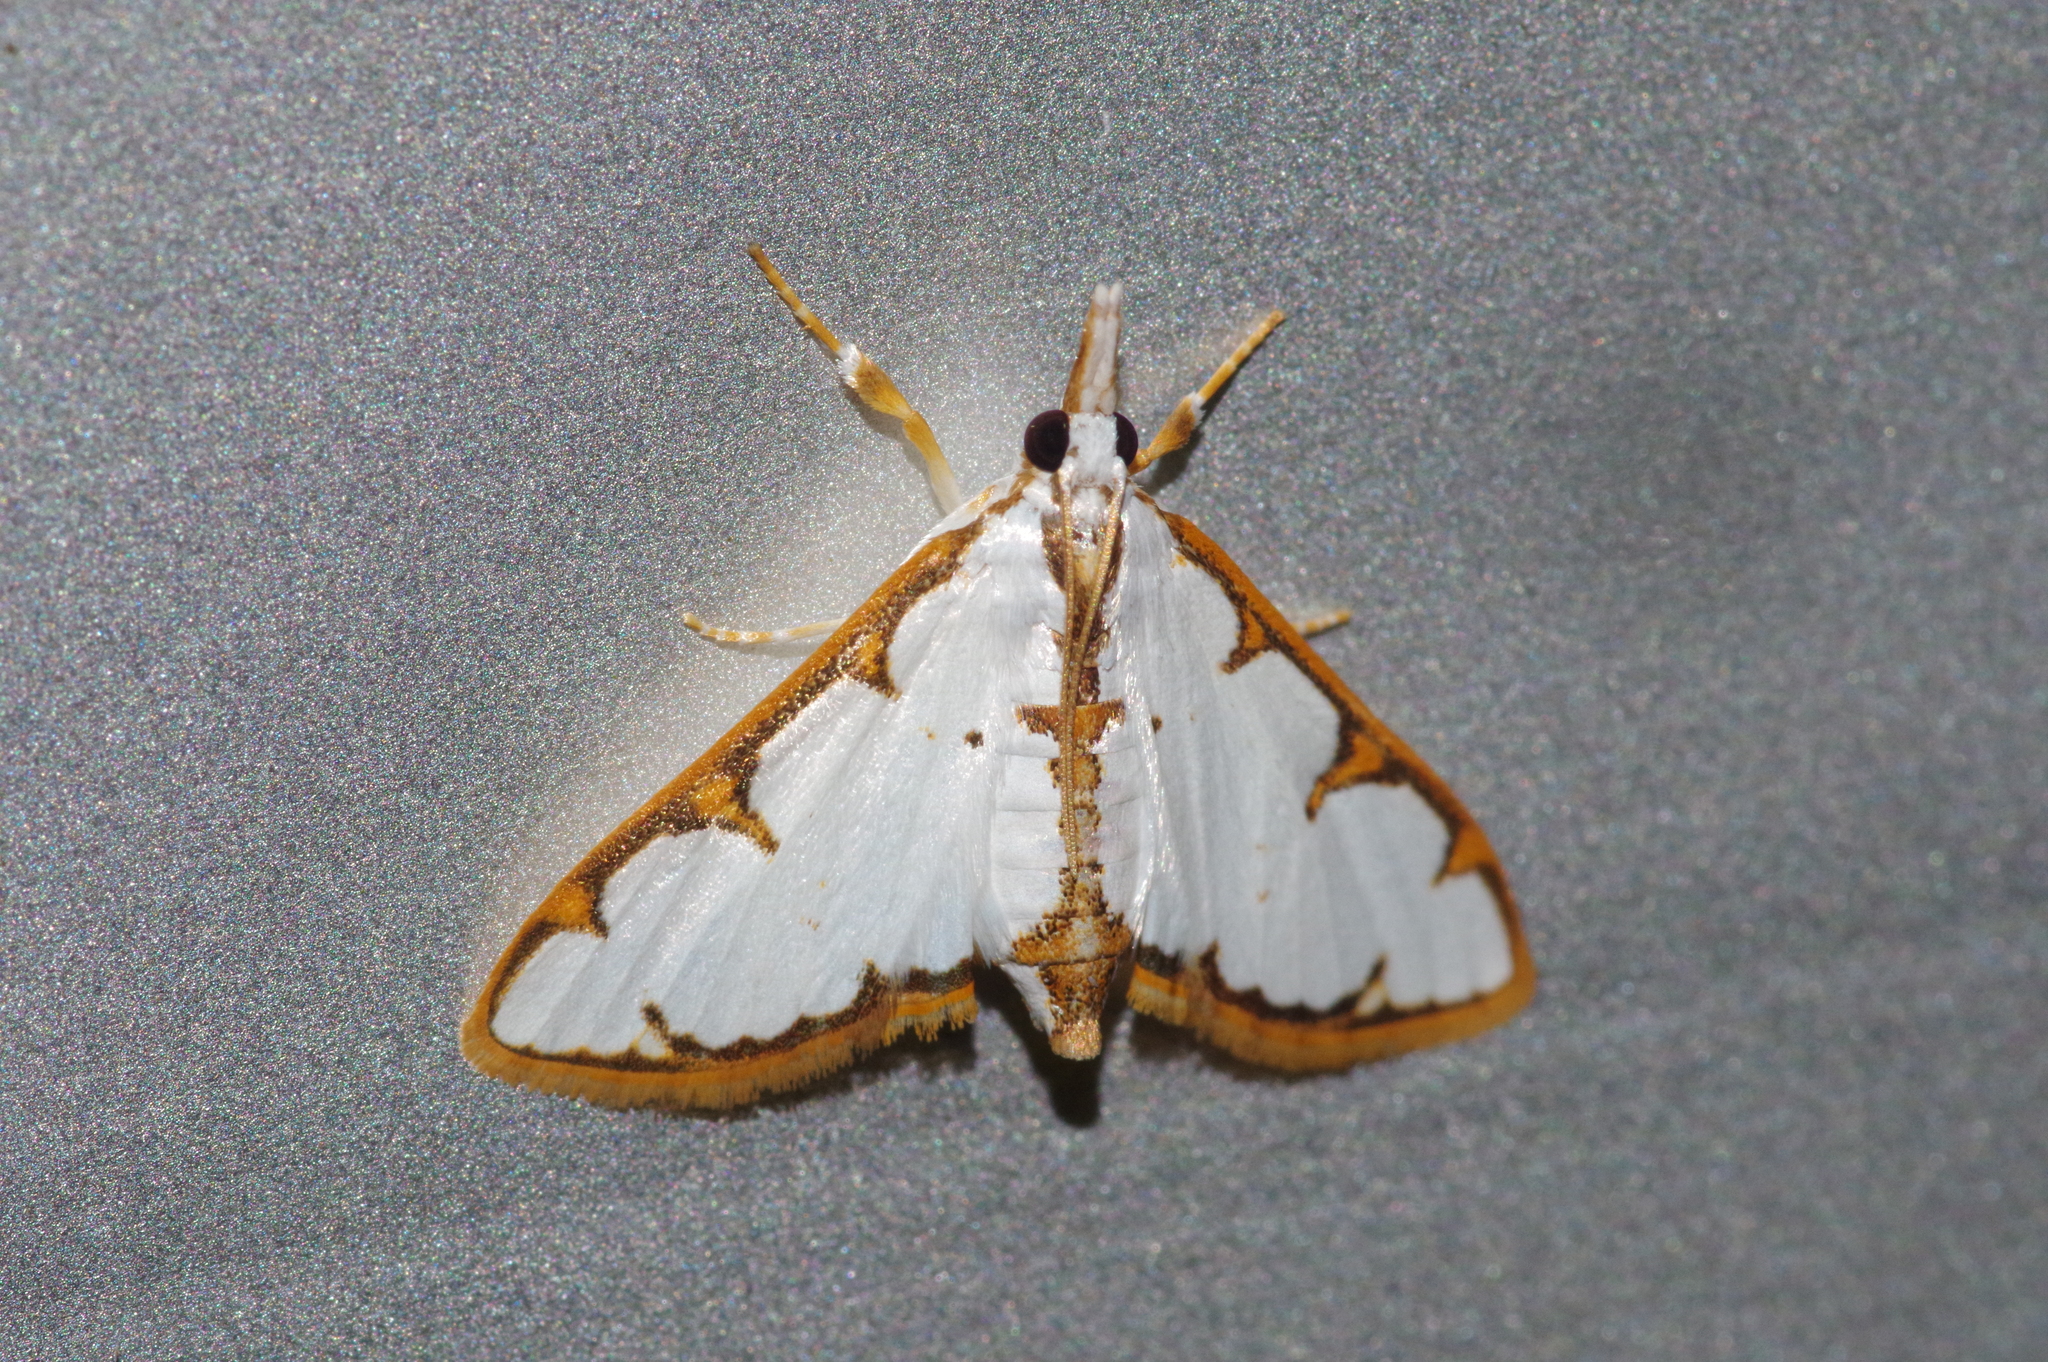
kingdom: Animalia
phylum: Arthropoda
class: Insecta
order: Lepidoptera
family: Crambidae
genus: Cirrhochrista
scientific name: Cirrhochrista brizoalis
